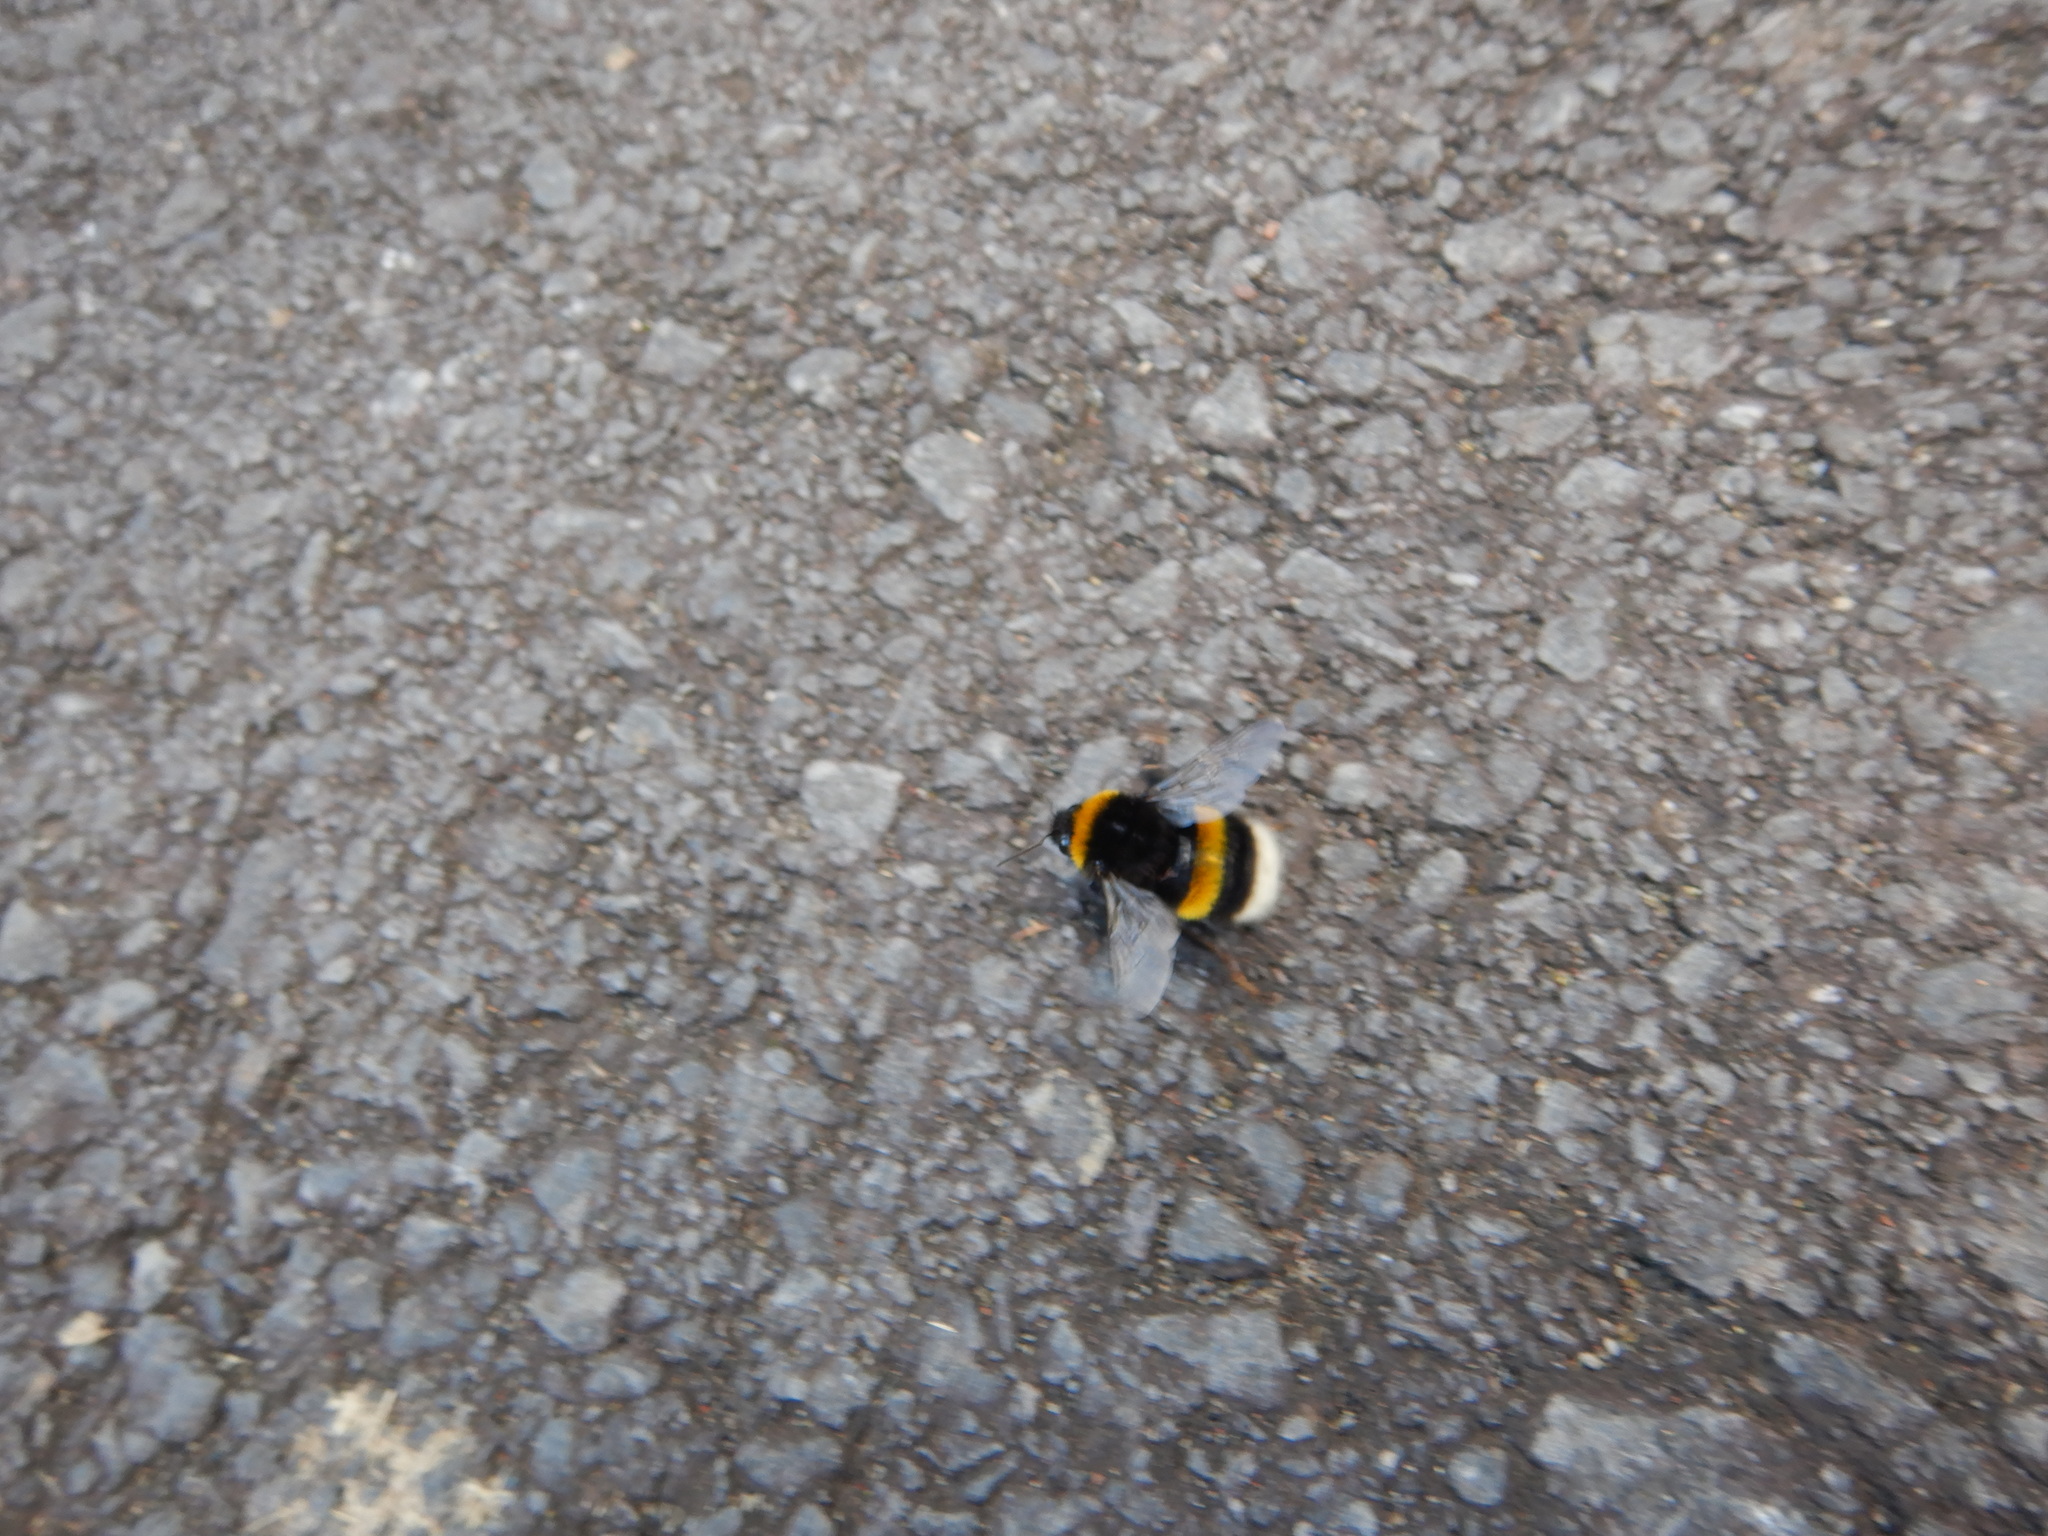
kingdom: Animalia
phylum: Arthropoda
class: Insecta
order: Hymenoptera
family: Apidae
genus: Bombus
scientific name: Bombus terrestris
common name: Buff-tailed bumblebee
